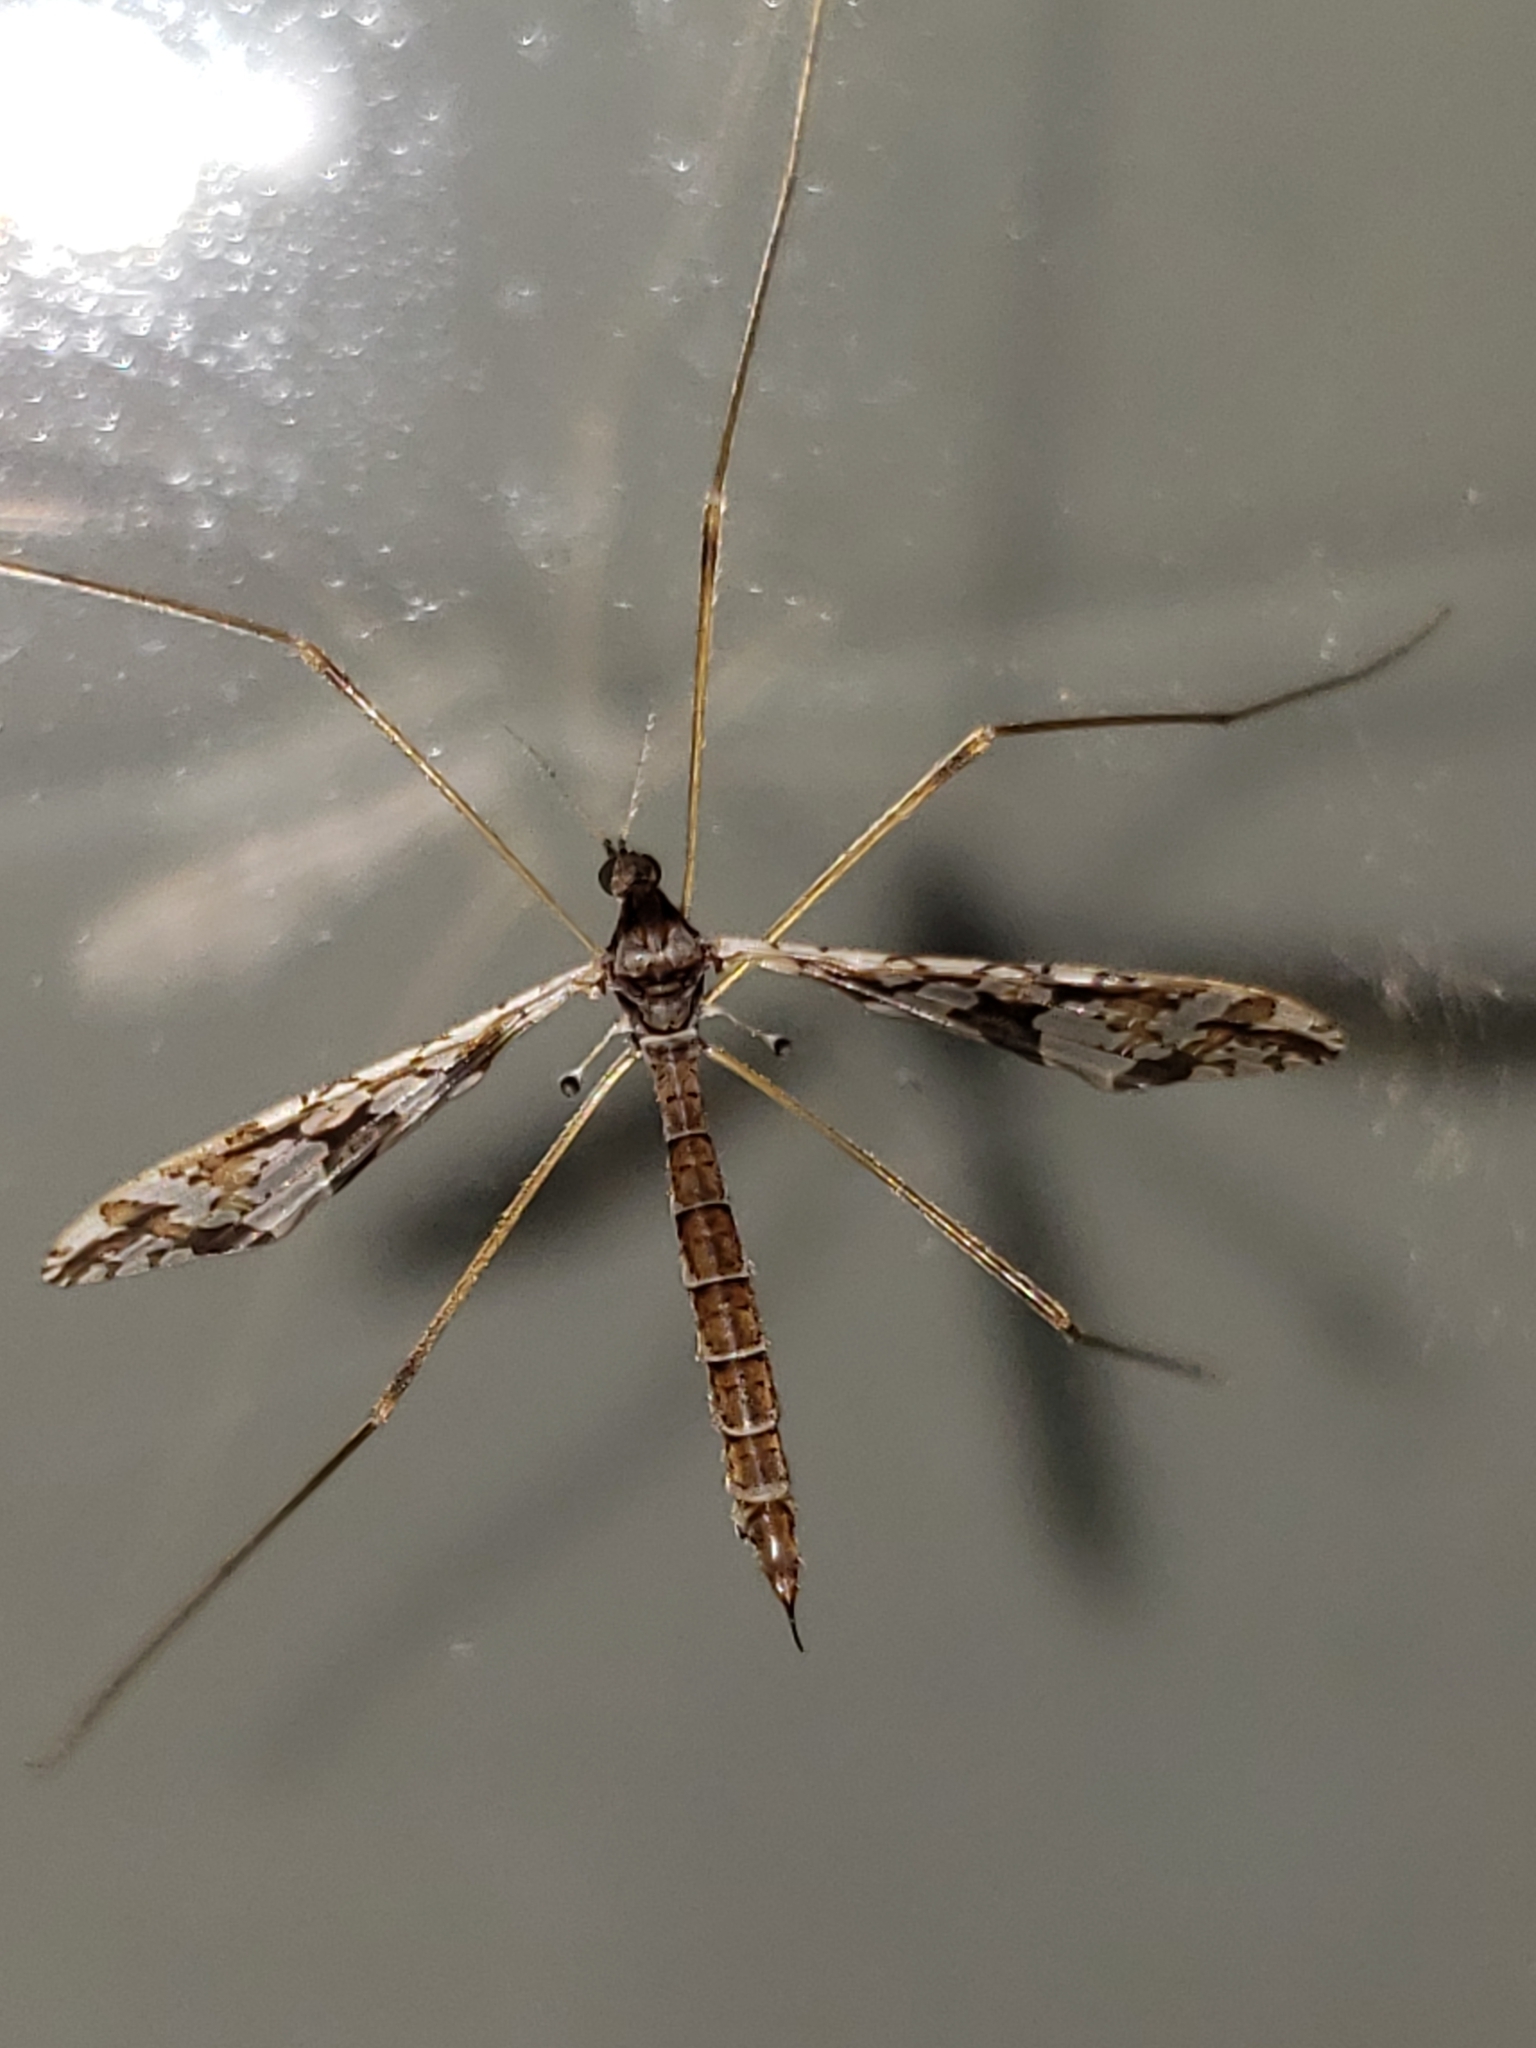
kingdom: Animalia
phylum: Arthropoda
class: Insecta
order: Diptera
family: Limoniidae
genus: Epiphragma
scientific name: Epiphragma solatrix
